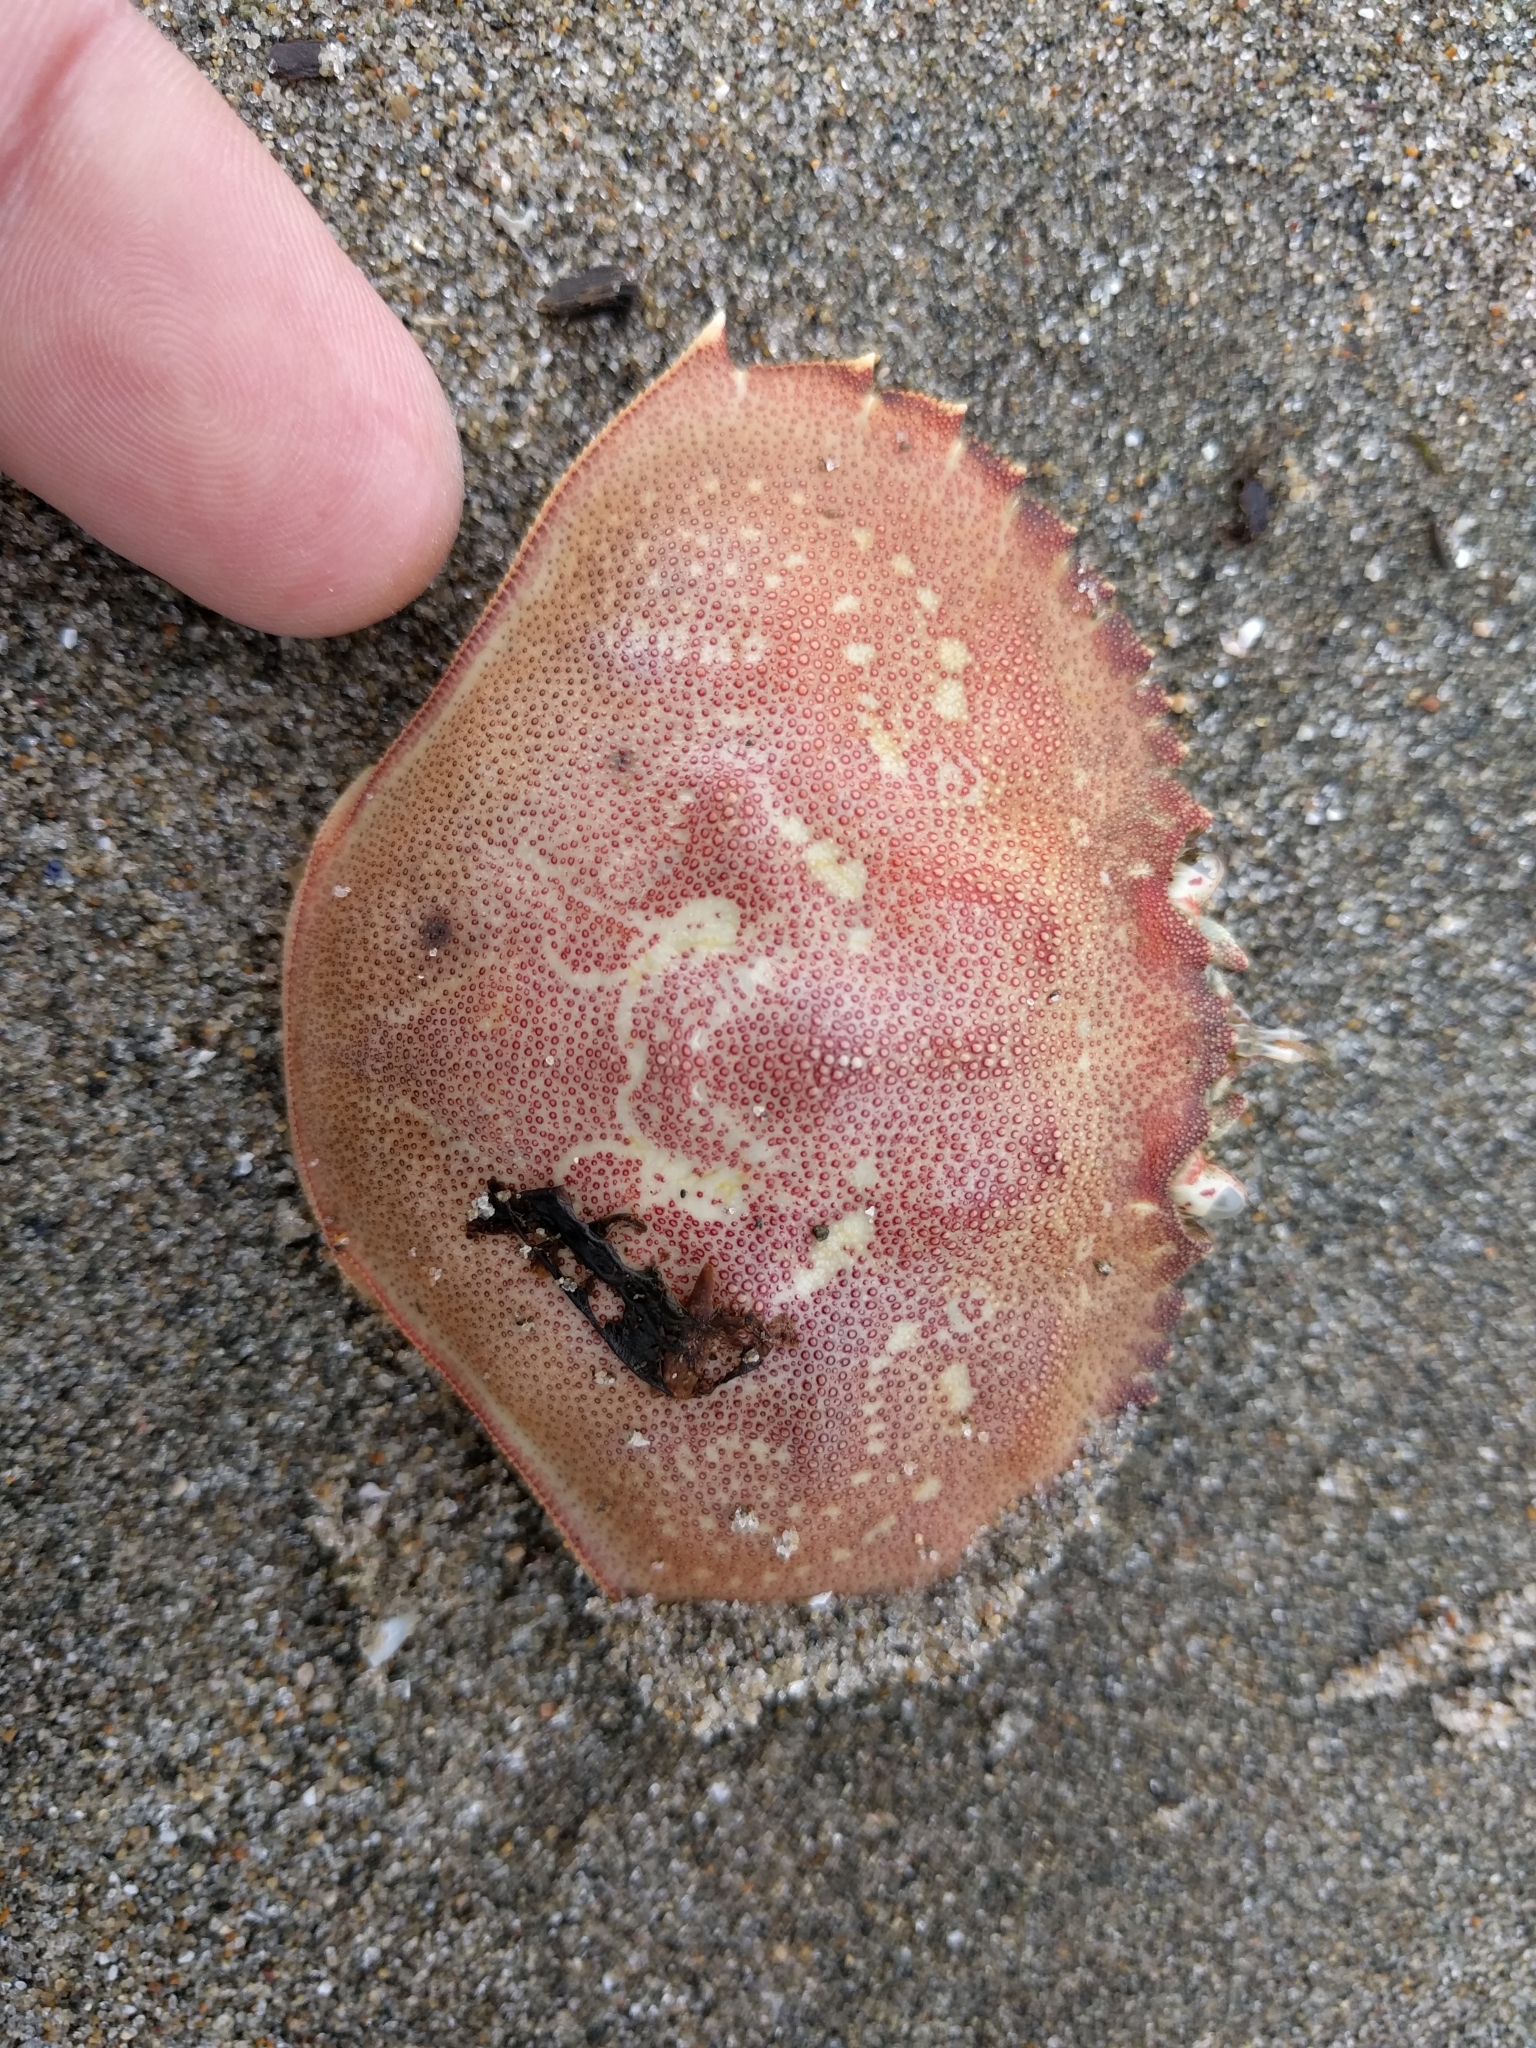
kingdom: Animalia
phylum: Arthropoda
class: Malacostraca
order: Decapoda
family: Cancridae
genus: Metacarcinus
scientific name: Metacarcinus magister
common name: Californian crab
